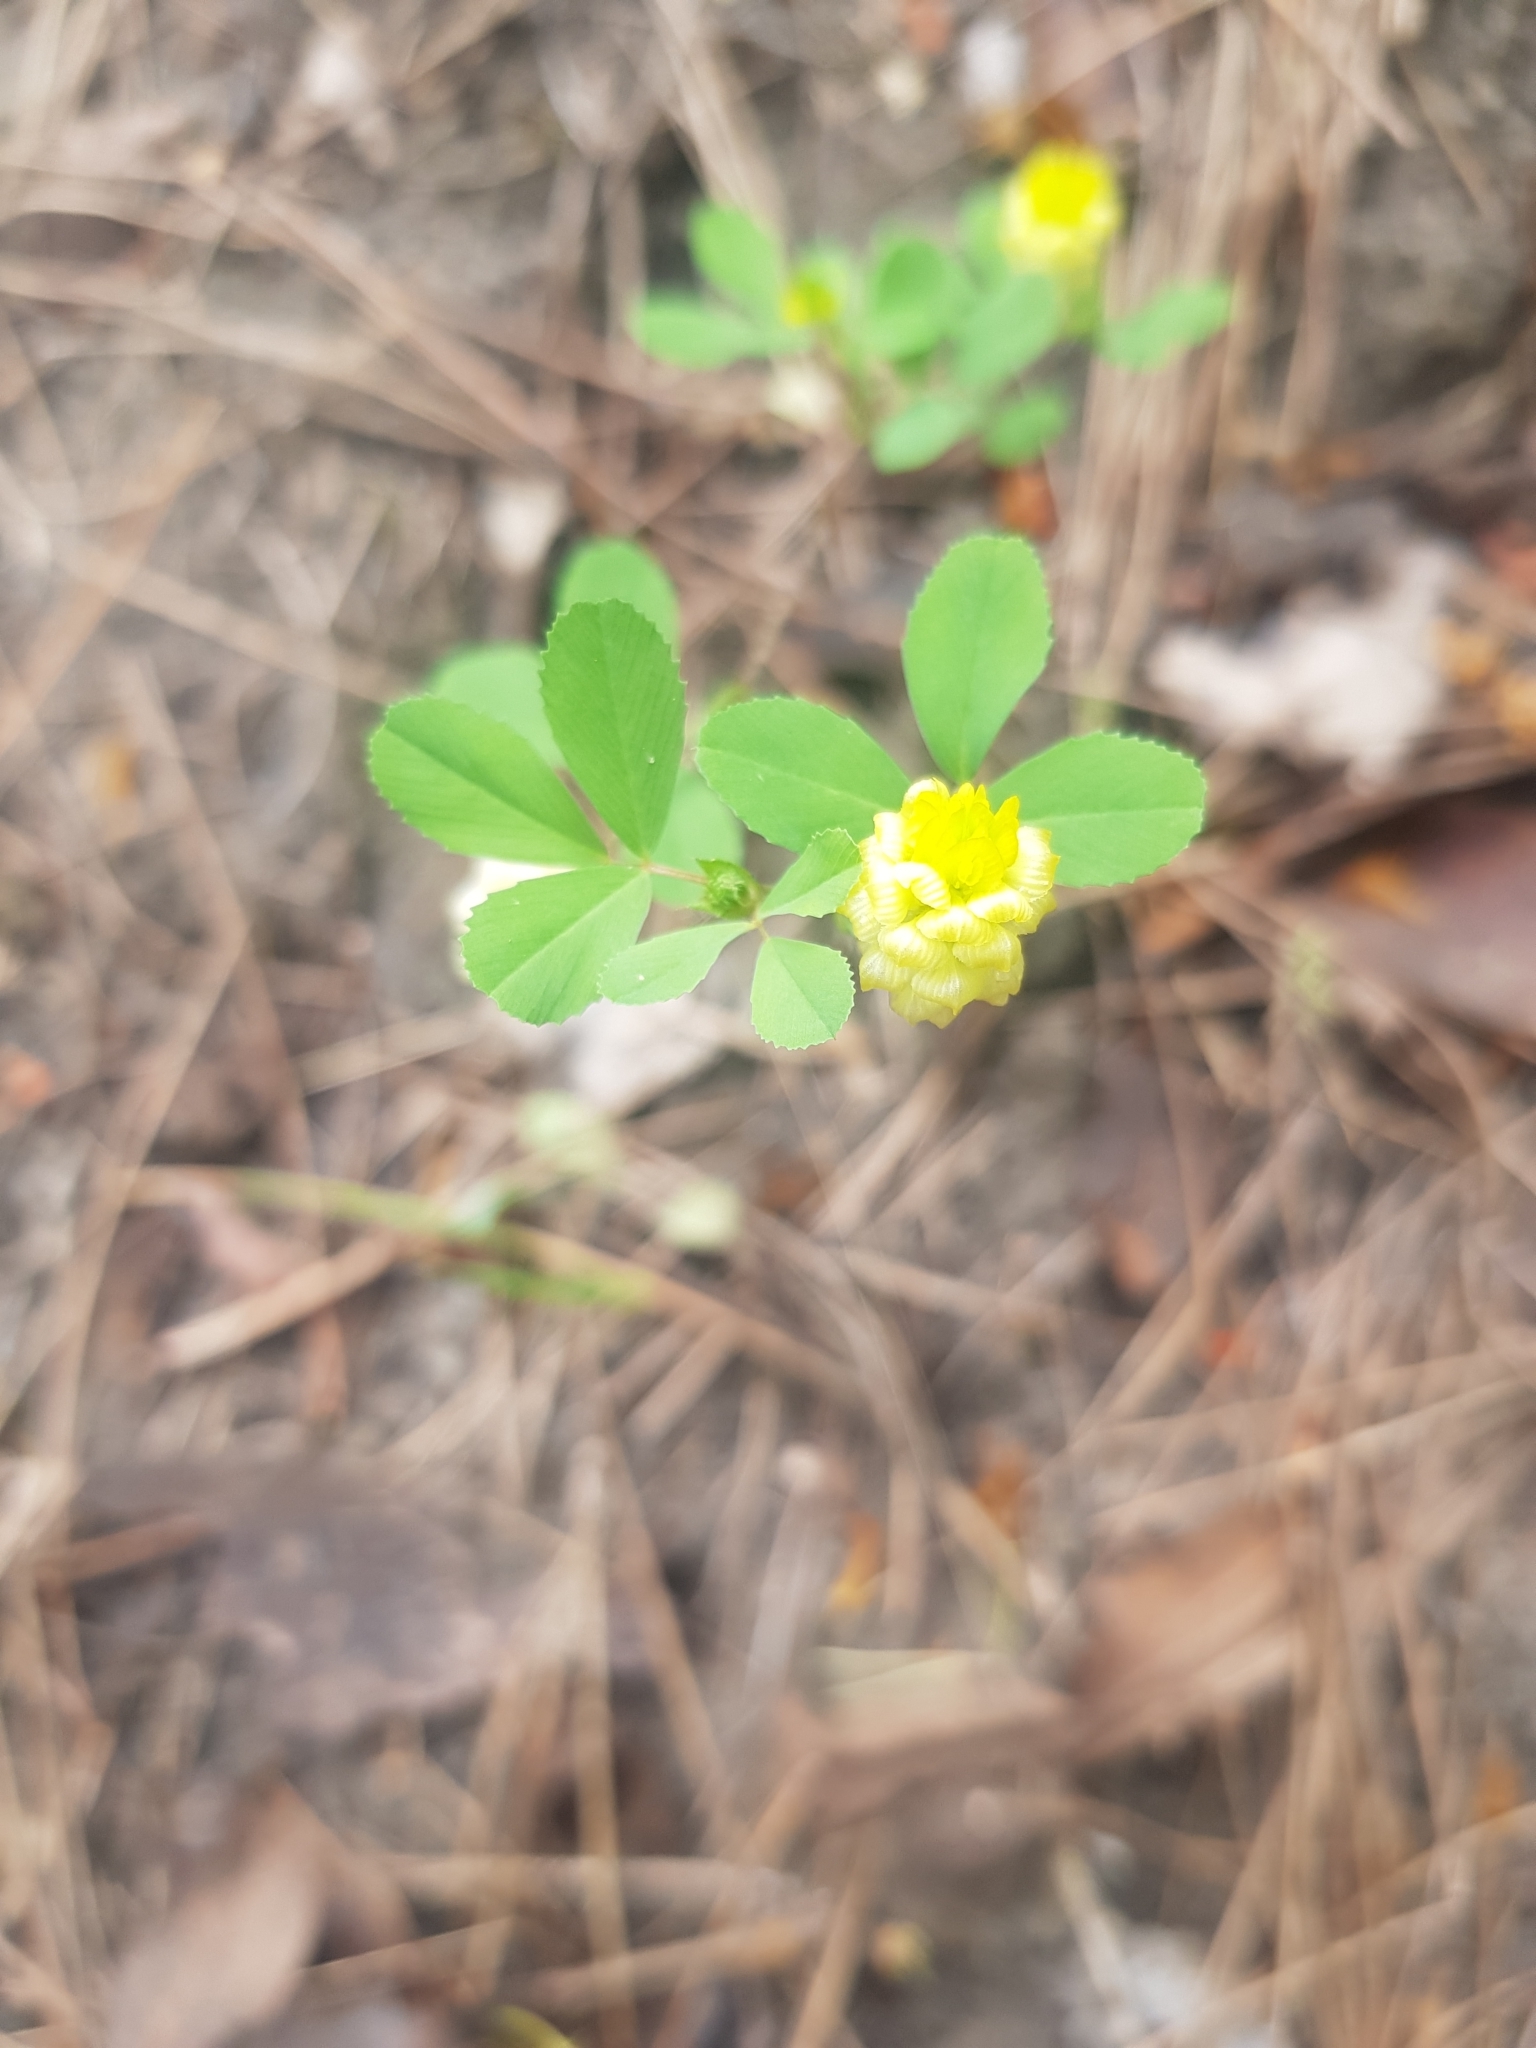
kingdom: Plantae
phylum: Tracheophyta
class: Magnoliopsida
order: Fabales
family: Fabaceae
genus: Trifolium
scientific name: Trifolium campestre
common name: Field clover
